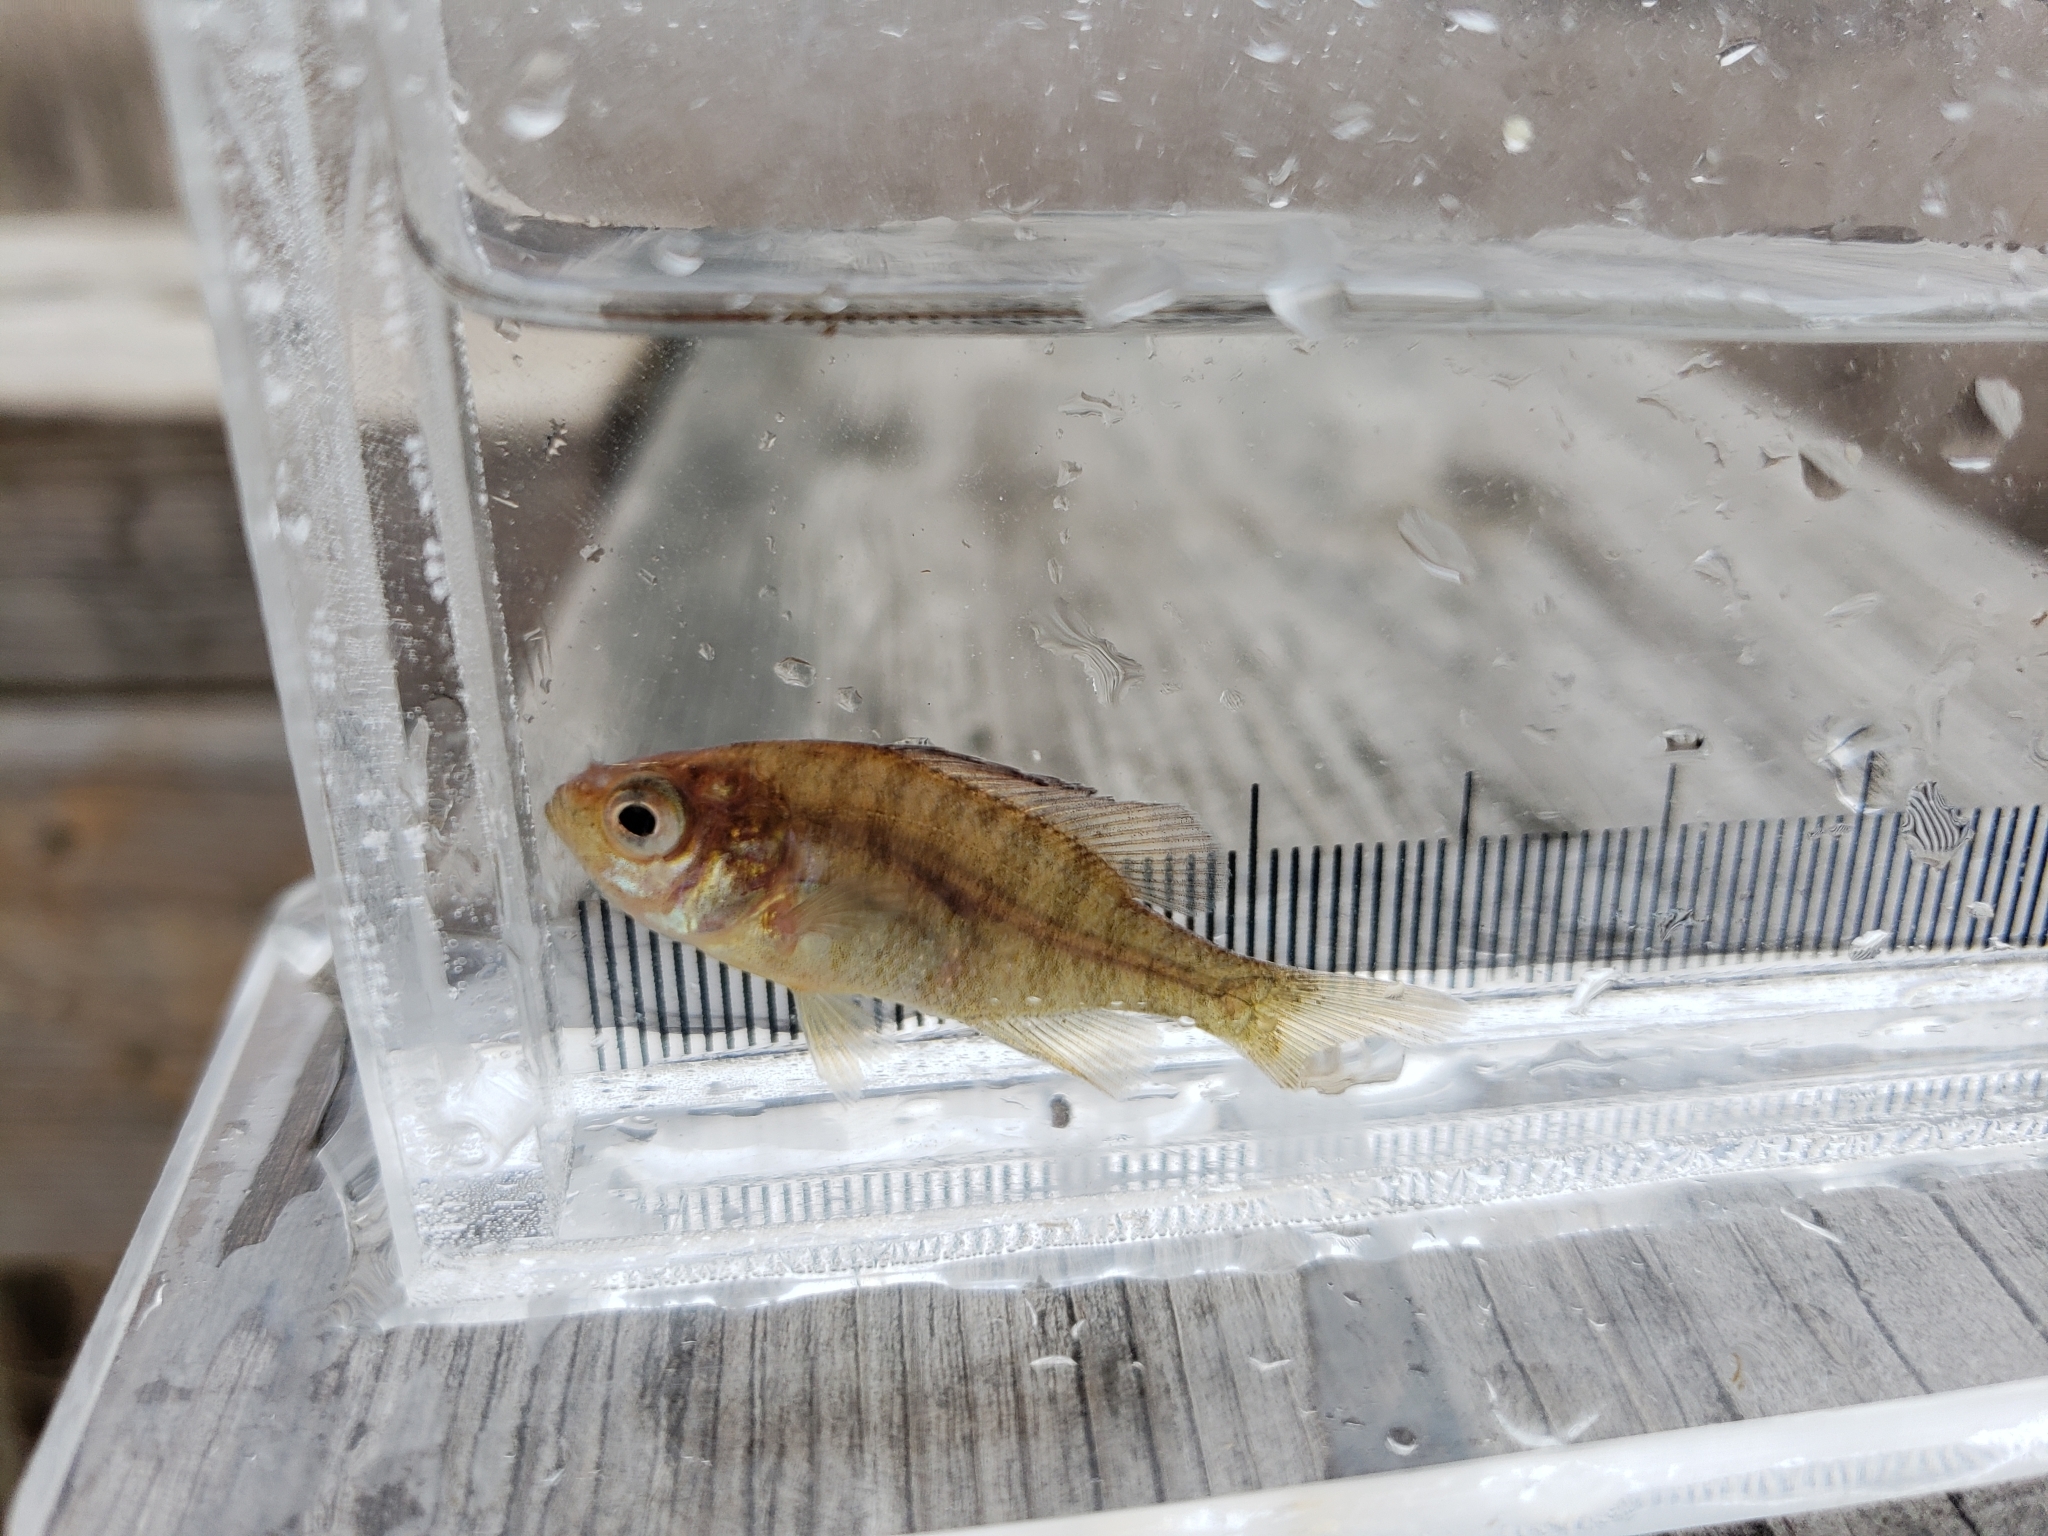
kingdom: Animalia
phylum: Chordata
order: Perciformes
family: Centrarchidae
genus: Lepomis
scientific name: Lepomis gibbosus
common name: Pumpkinseed
